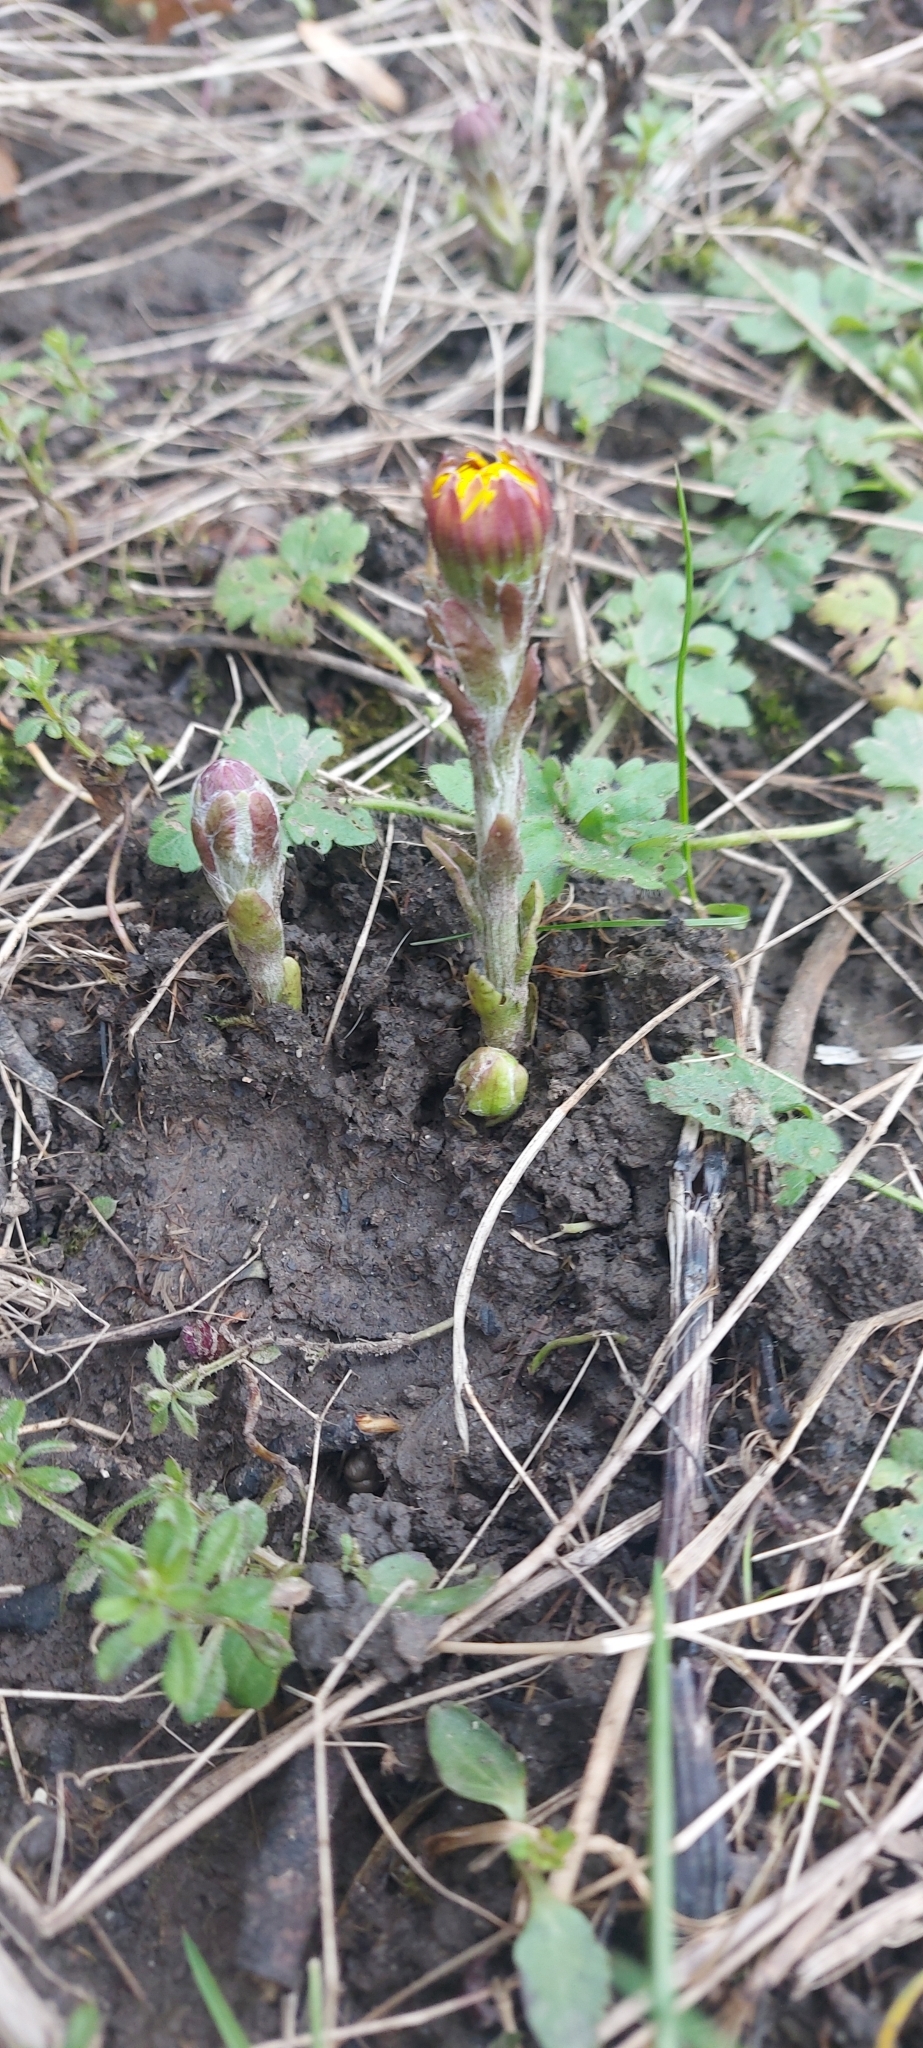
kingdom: Plantae
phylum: Tracheophyta
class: Magnoliopsida
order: Asterales
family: Asteraceae
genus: Tussilago
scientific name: Tussilago farfara
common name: Coltsfoot
